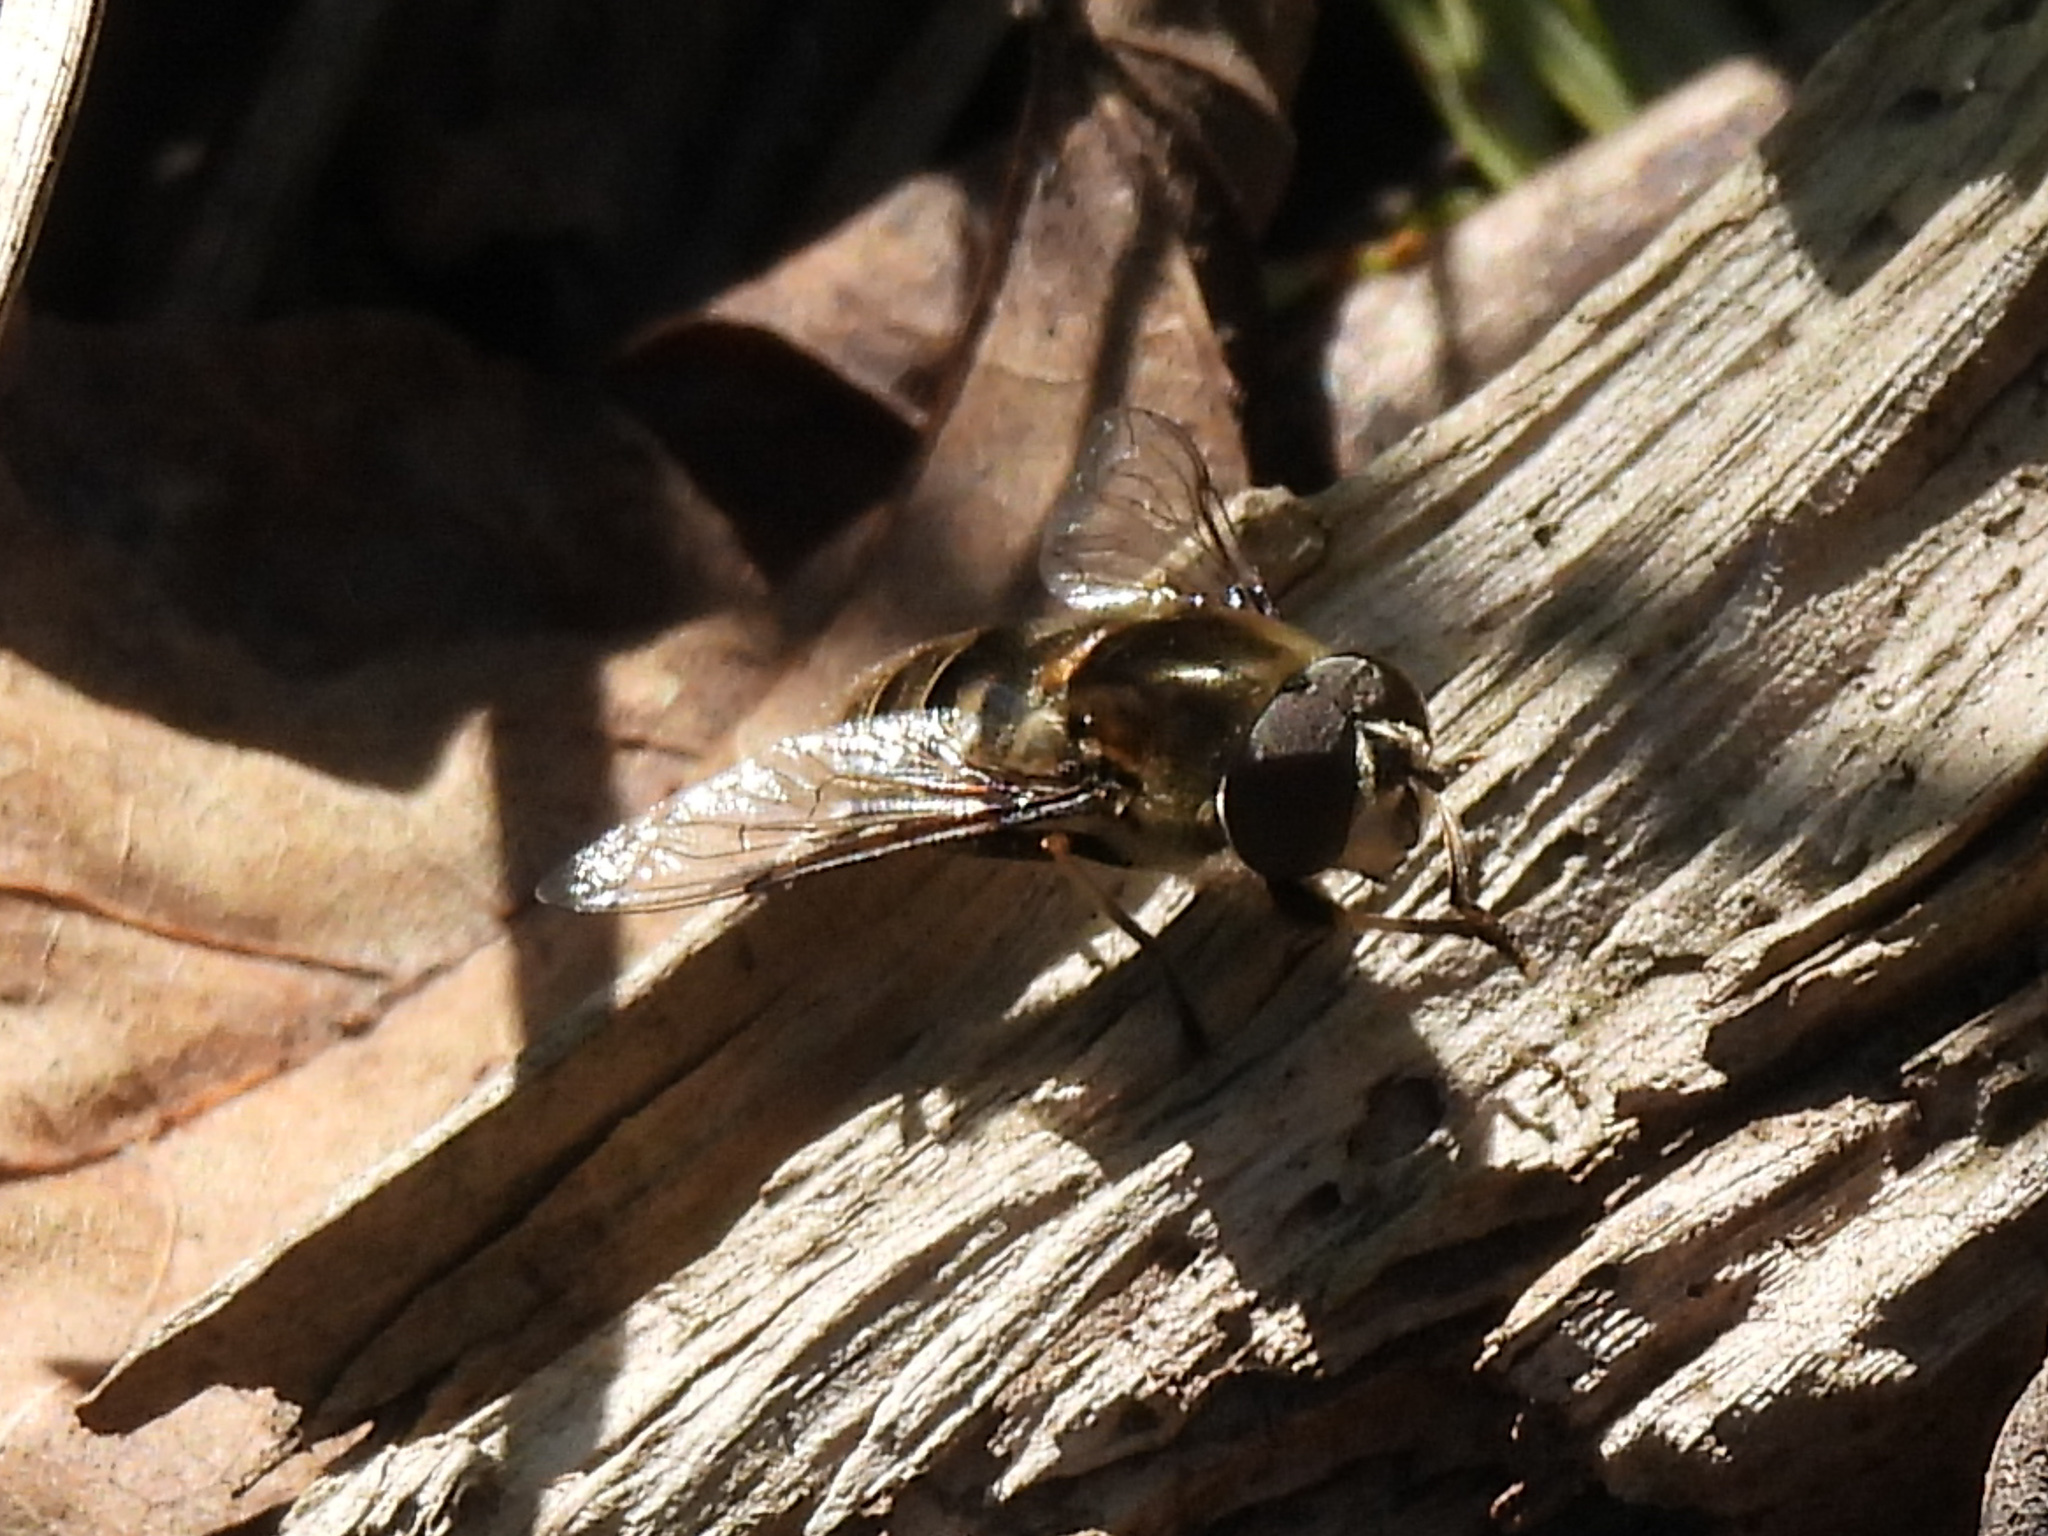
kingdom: Animalia
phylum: Arthropoda
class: Insecta
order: Diptera
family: Syrphidae
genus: Eristalis
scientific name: Eristalis dimidiata
